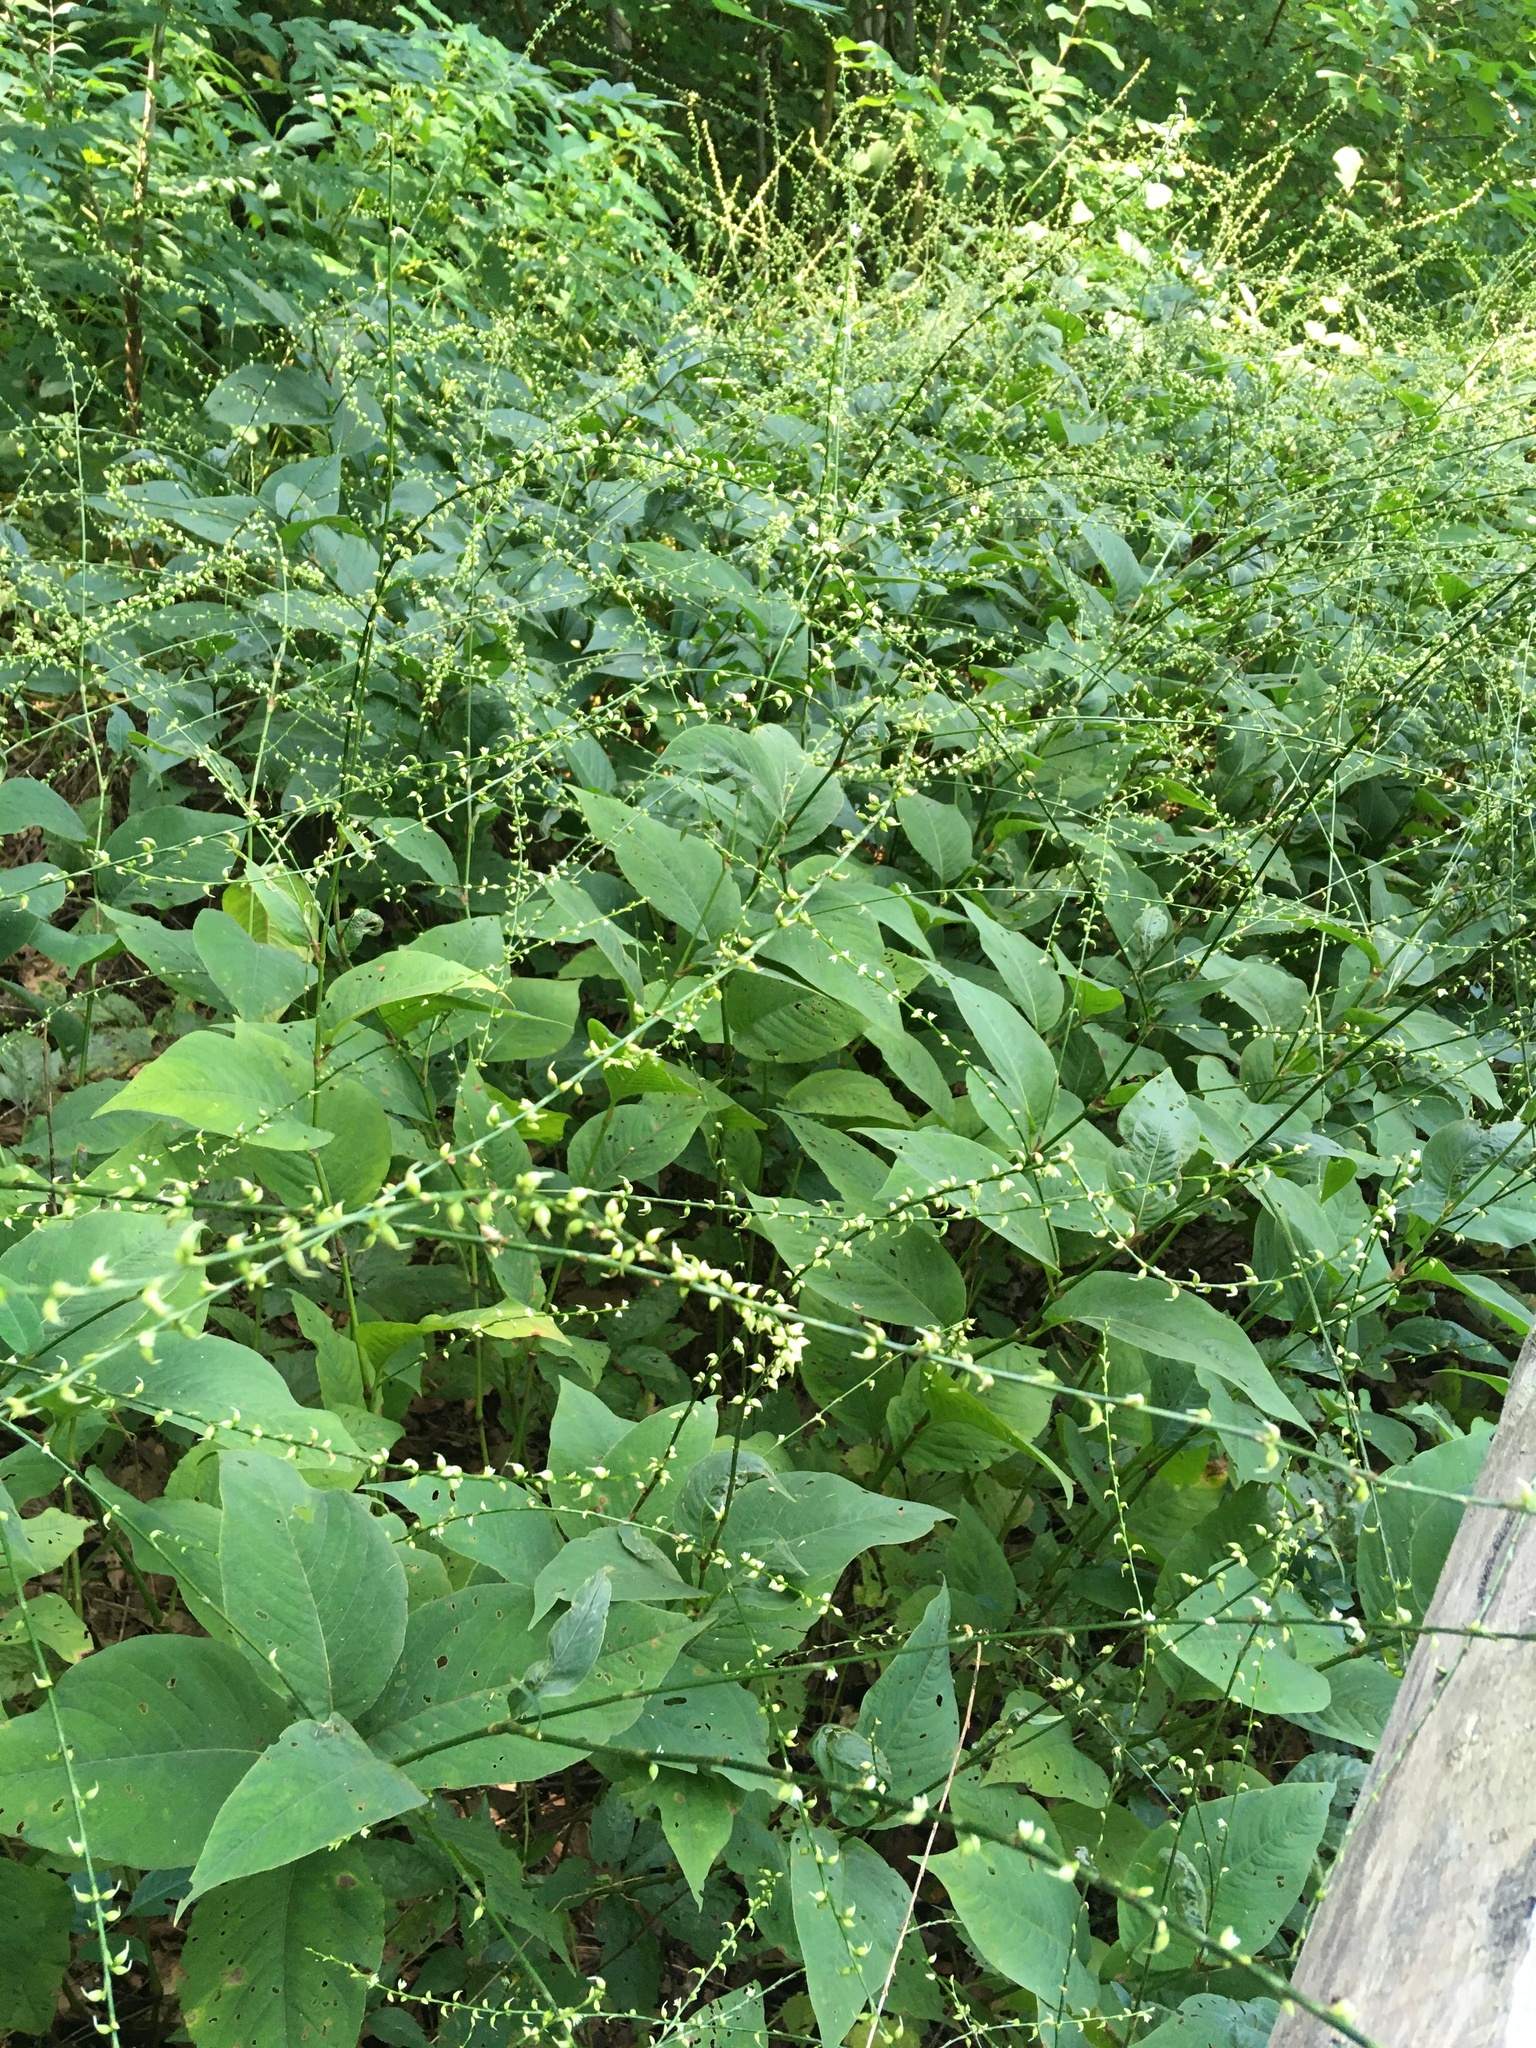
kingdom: Plantae
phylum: Tracheophyta
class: Magnoliopsida
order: Caryophyllales
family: Polygonaceae
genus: Persicaria
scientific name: Persicaria virginiana
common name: Jumpseed
